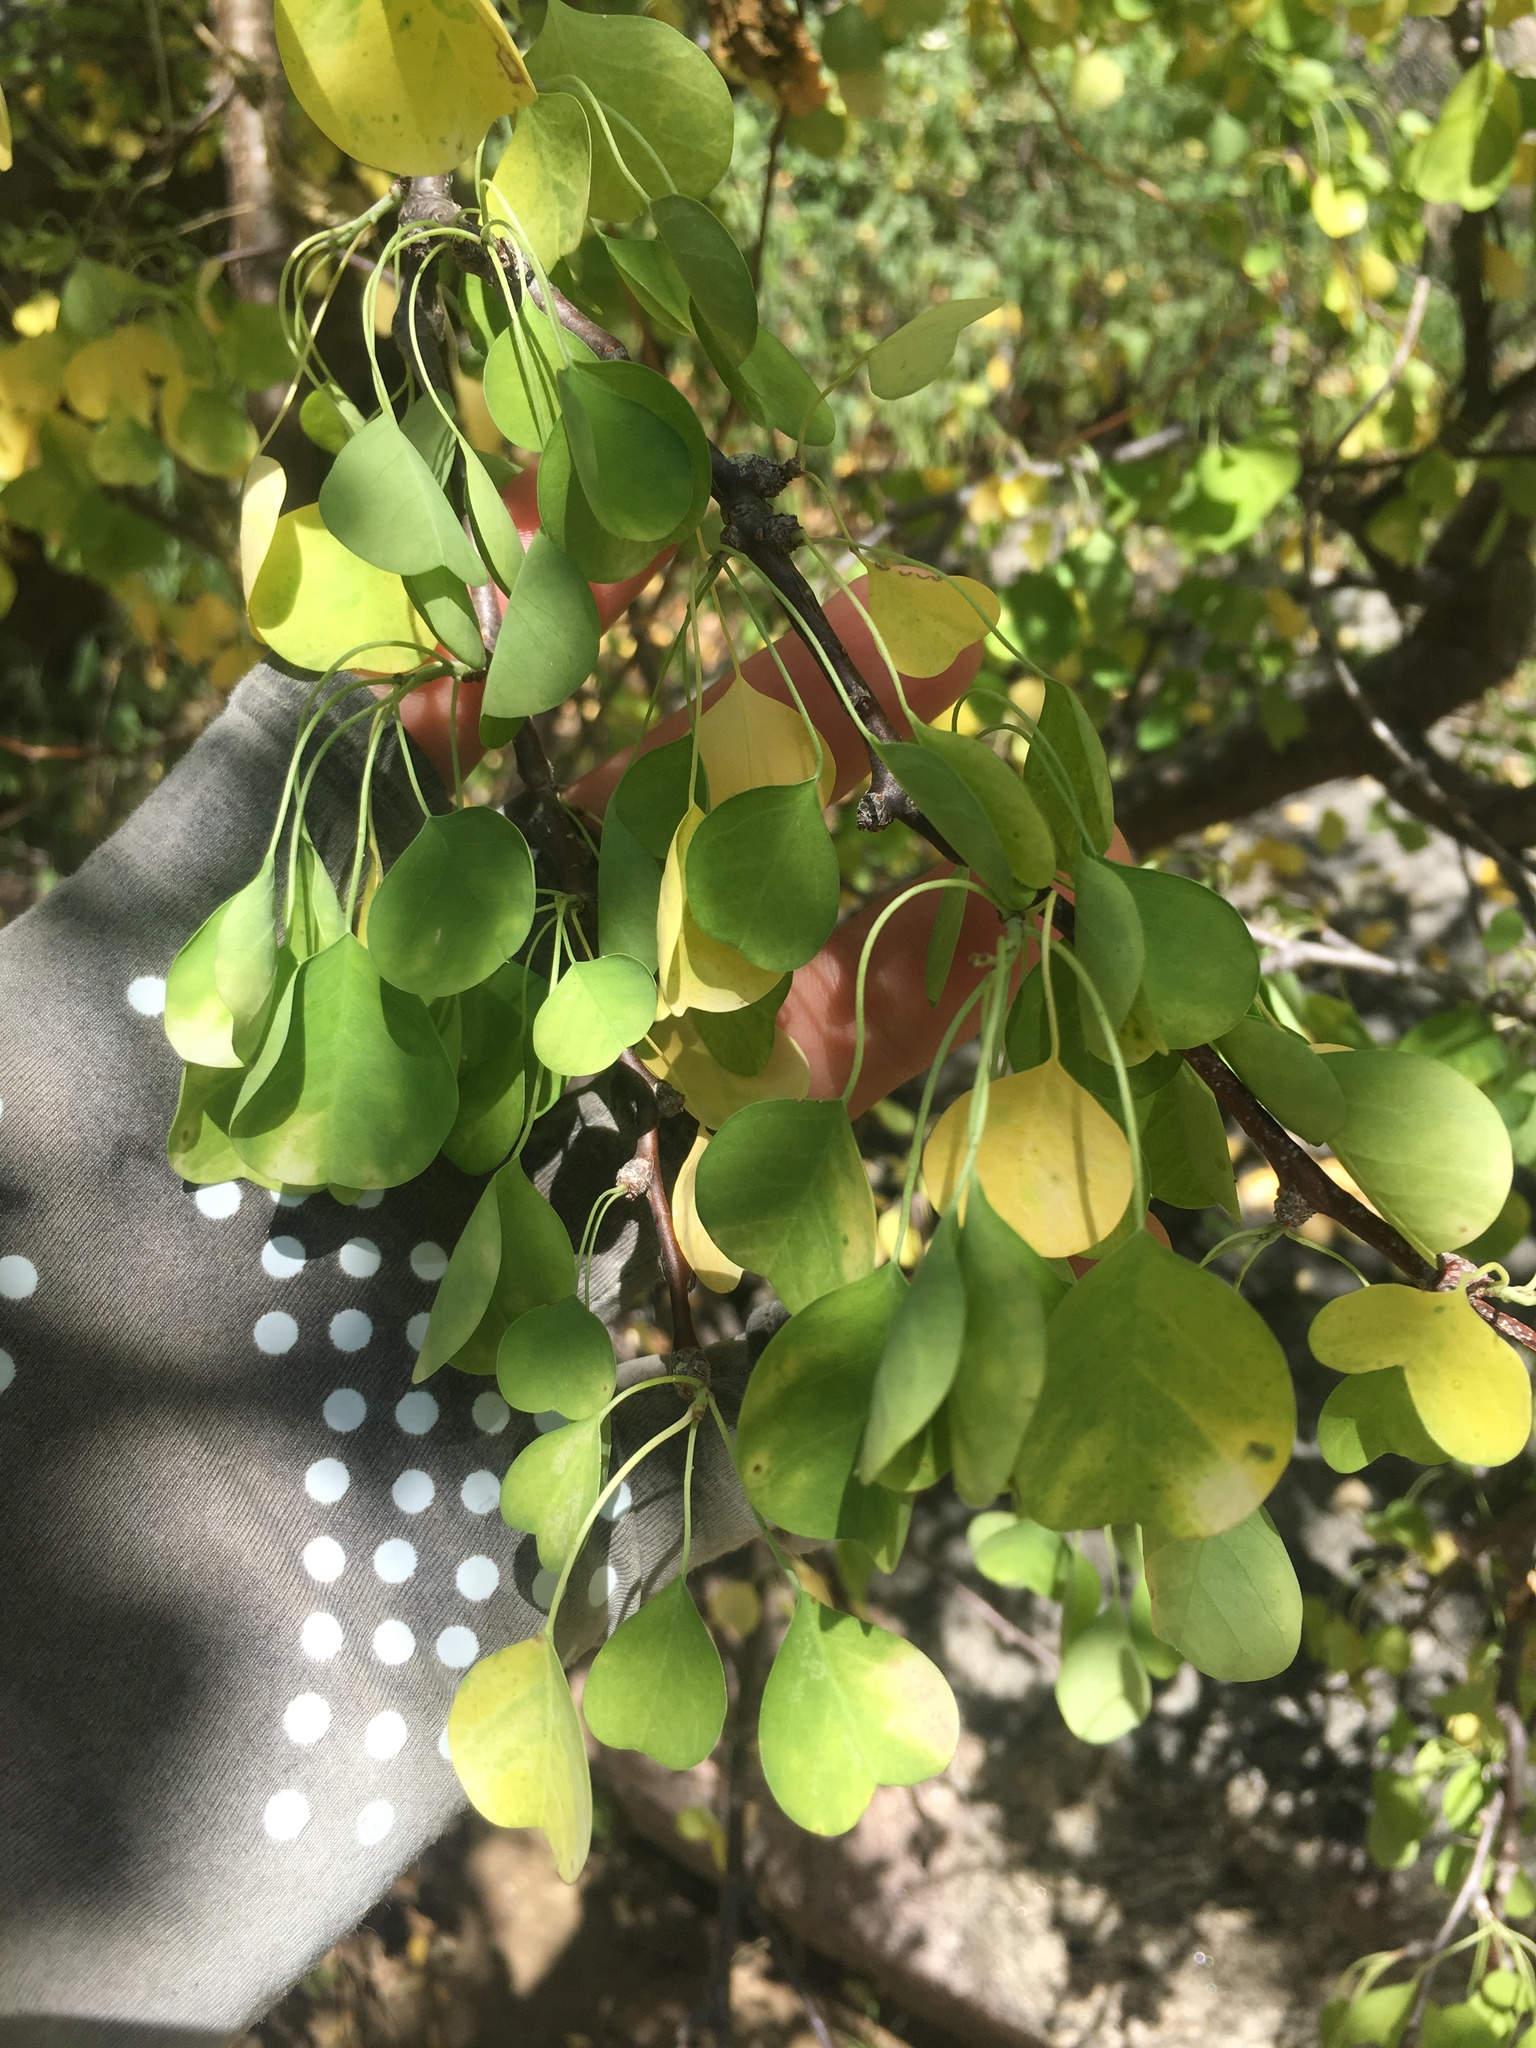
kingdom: Plantae
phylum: Tracheophyta
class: Magnoliopsida
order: Malpighiales
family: Euphorbiaceae
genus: Euphorbia
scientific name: Euphorbia californica
